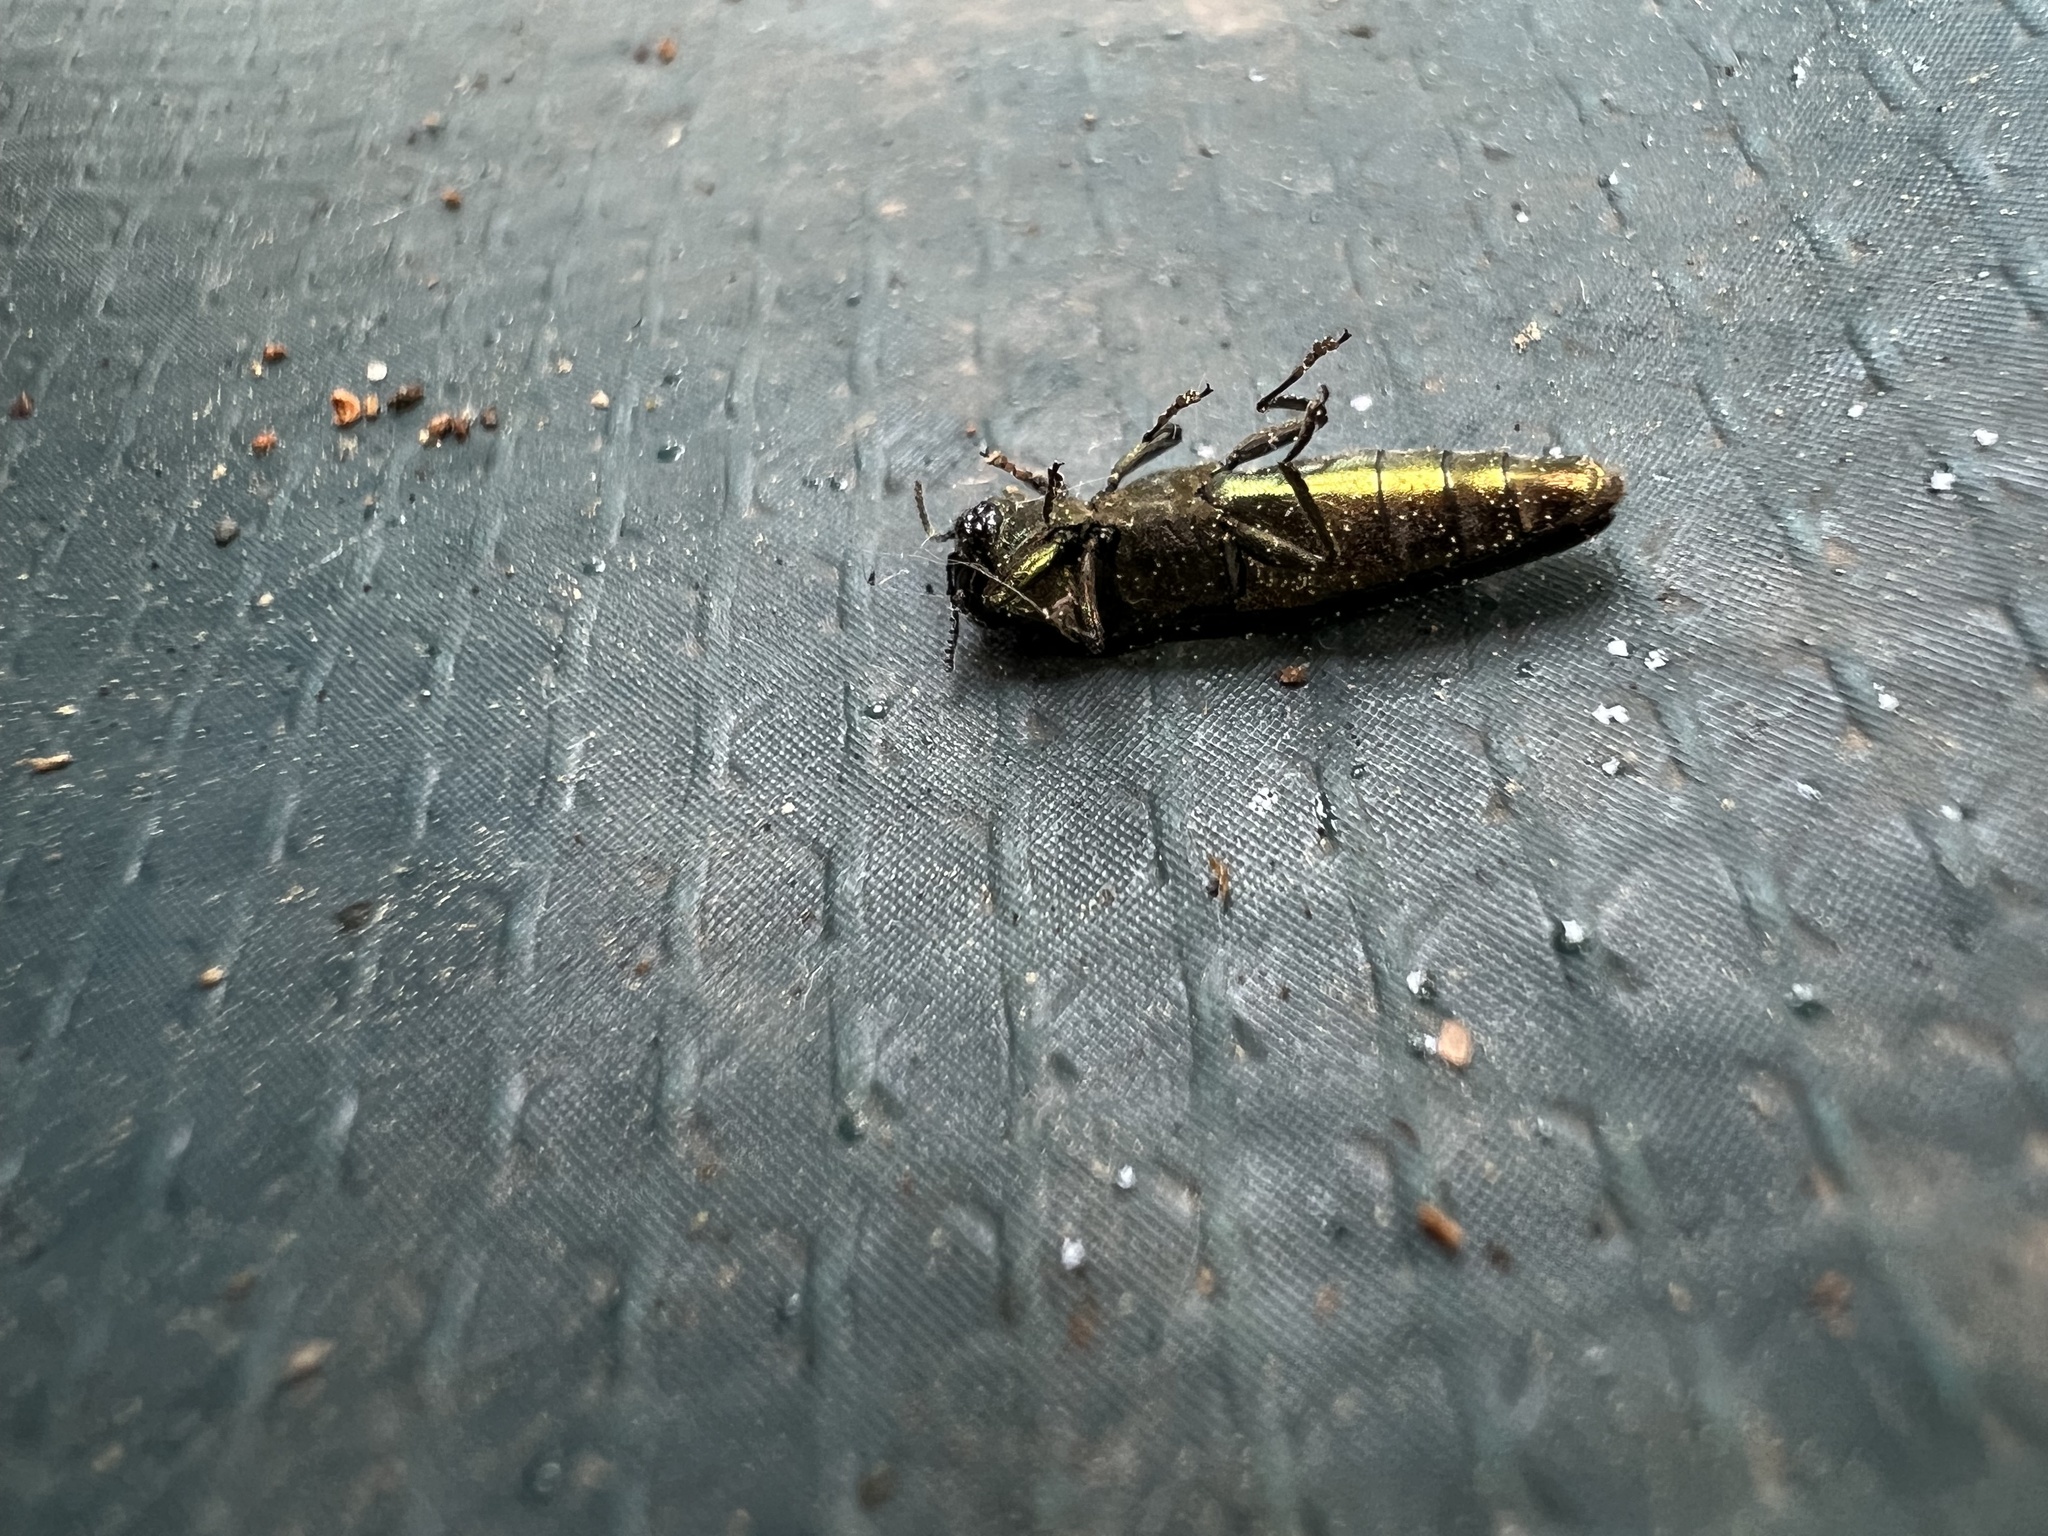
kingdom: Animalia
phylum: Arthropoda
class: Insecta
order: Coleoptera
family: Buprestidae
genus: Agrilus
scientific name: Agrilus planipennis
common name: Emerald ash borer
